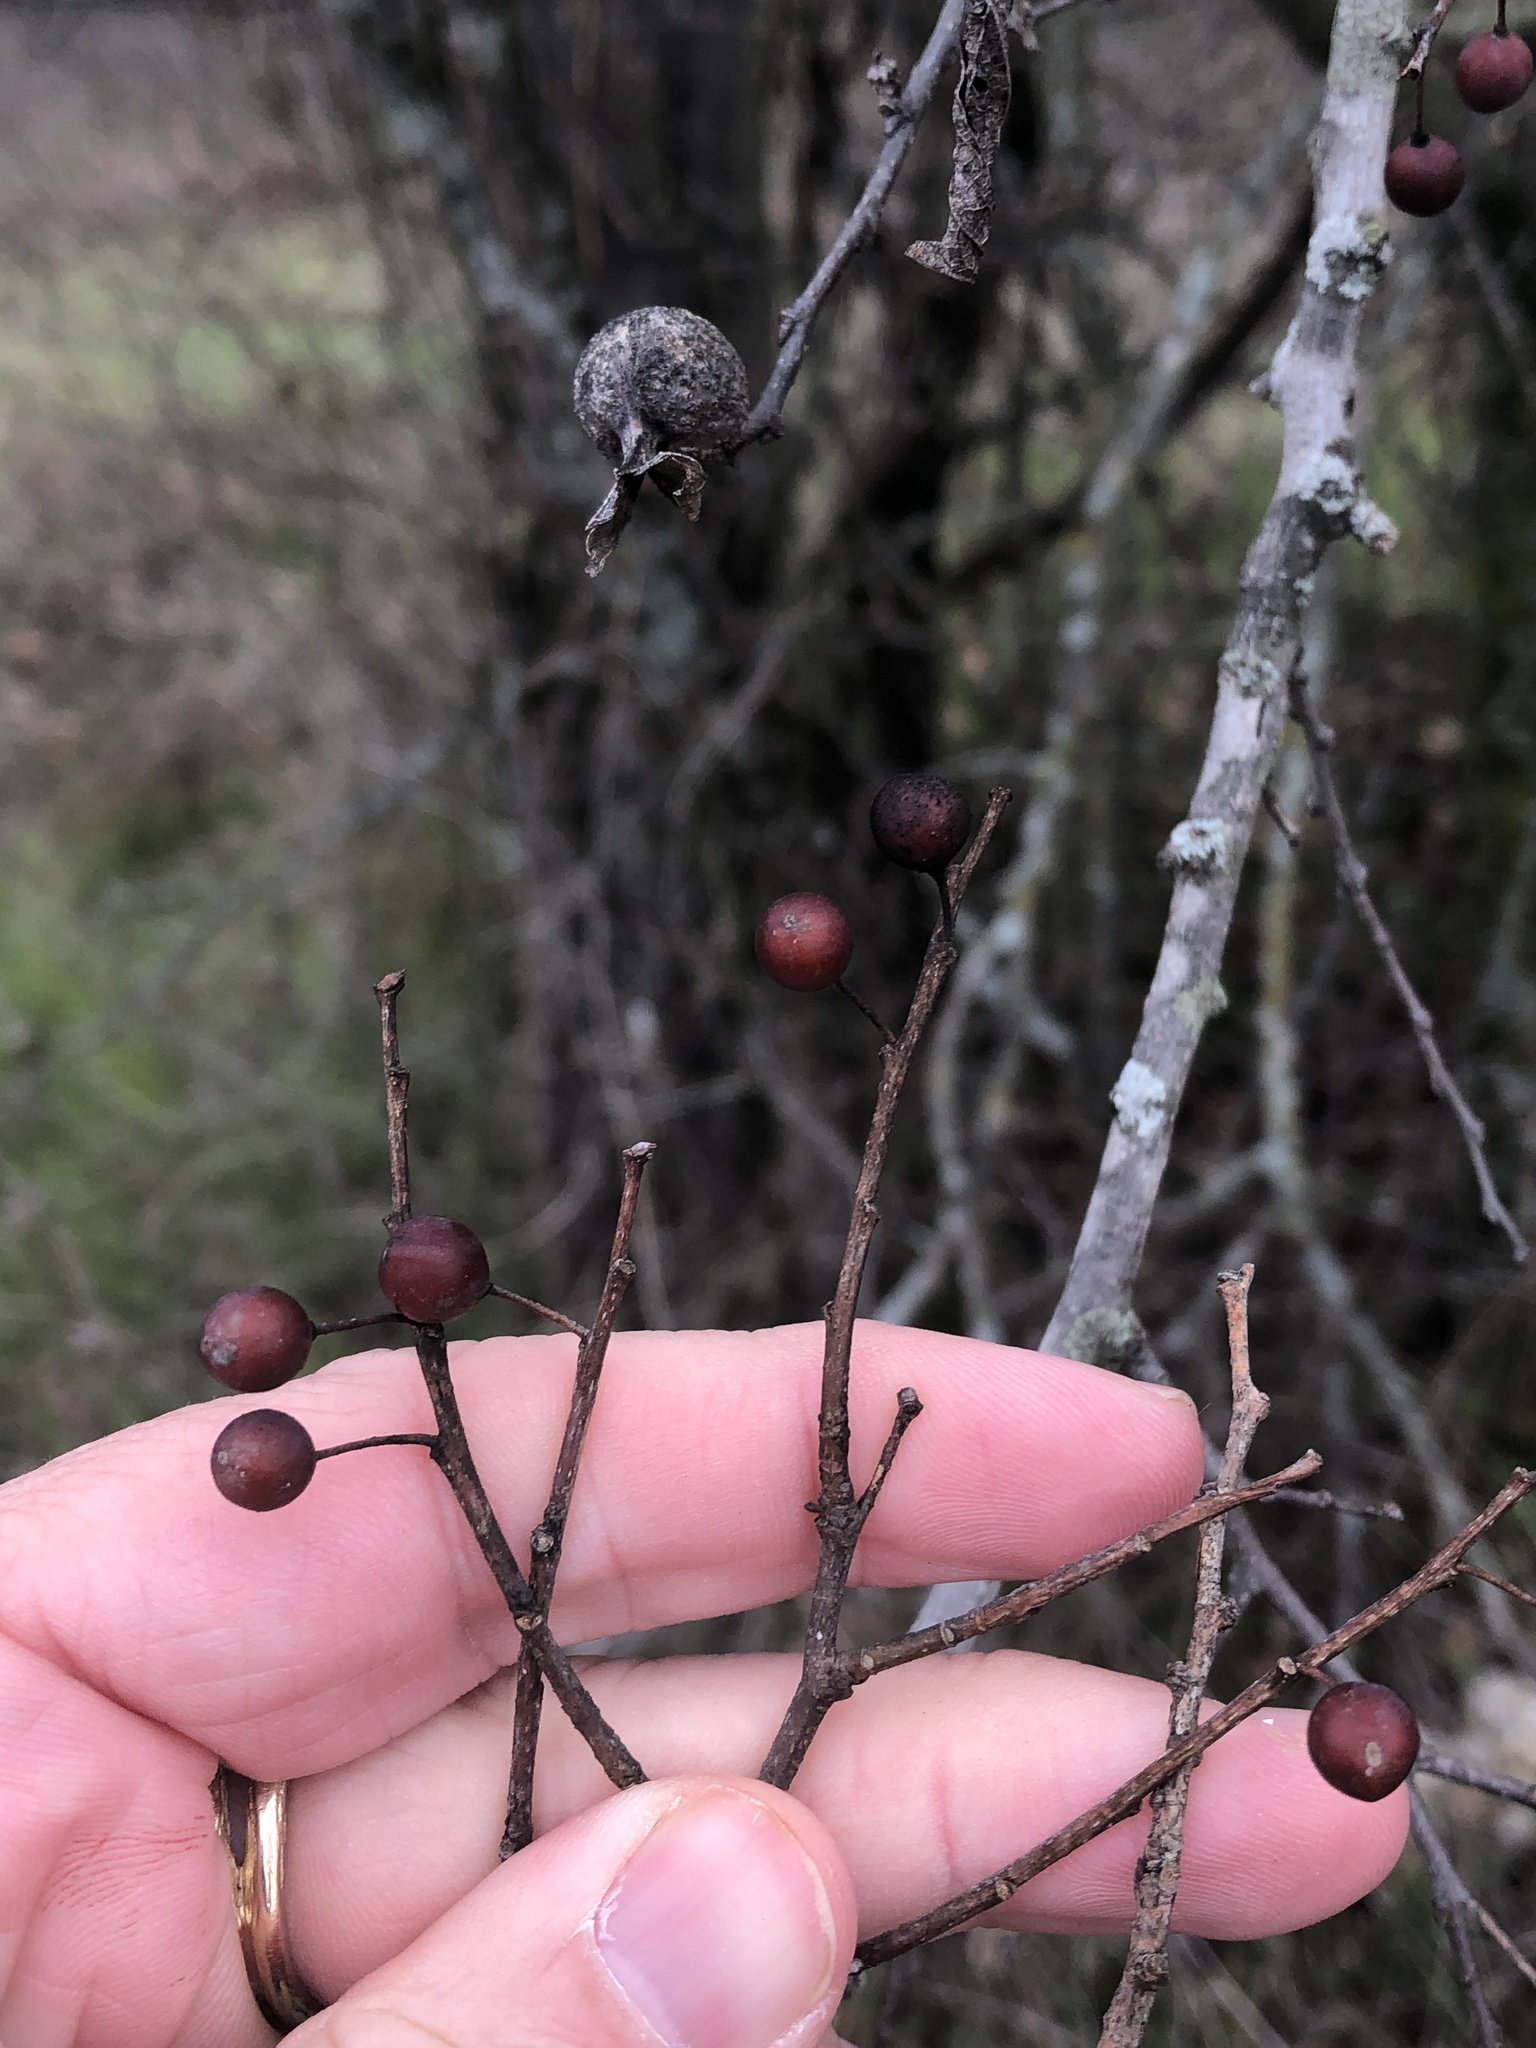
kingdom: Plantae
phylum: Tracheophyta
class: Magnoliopsida
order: Rosales
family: Cannabaceae
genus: Celtis
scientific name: Celtis laevigata
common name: Sugarberry
